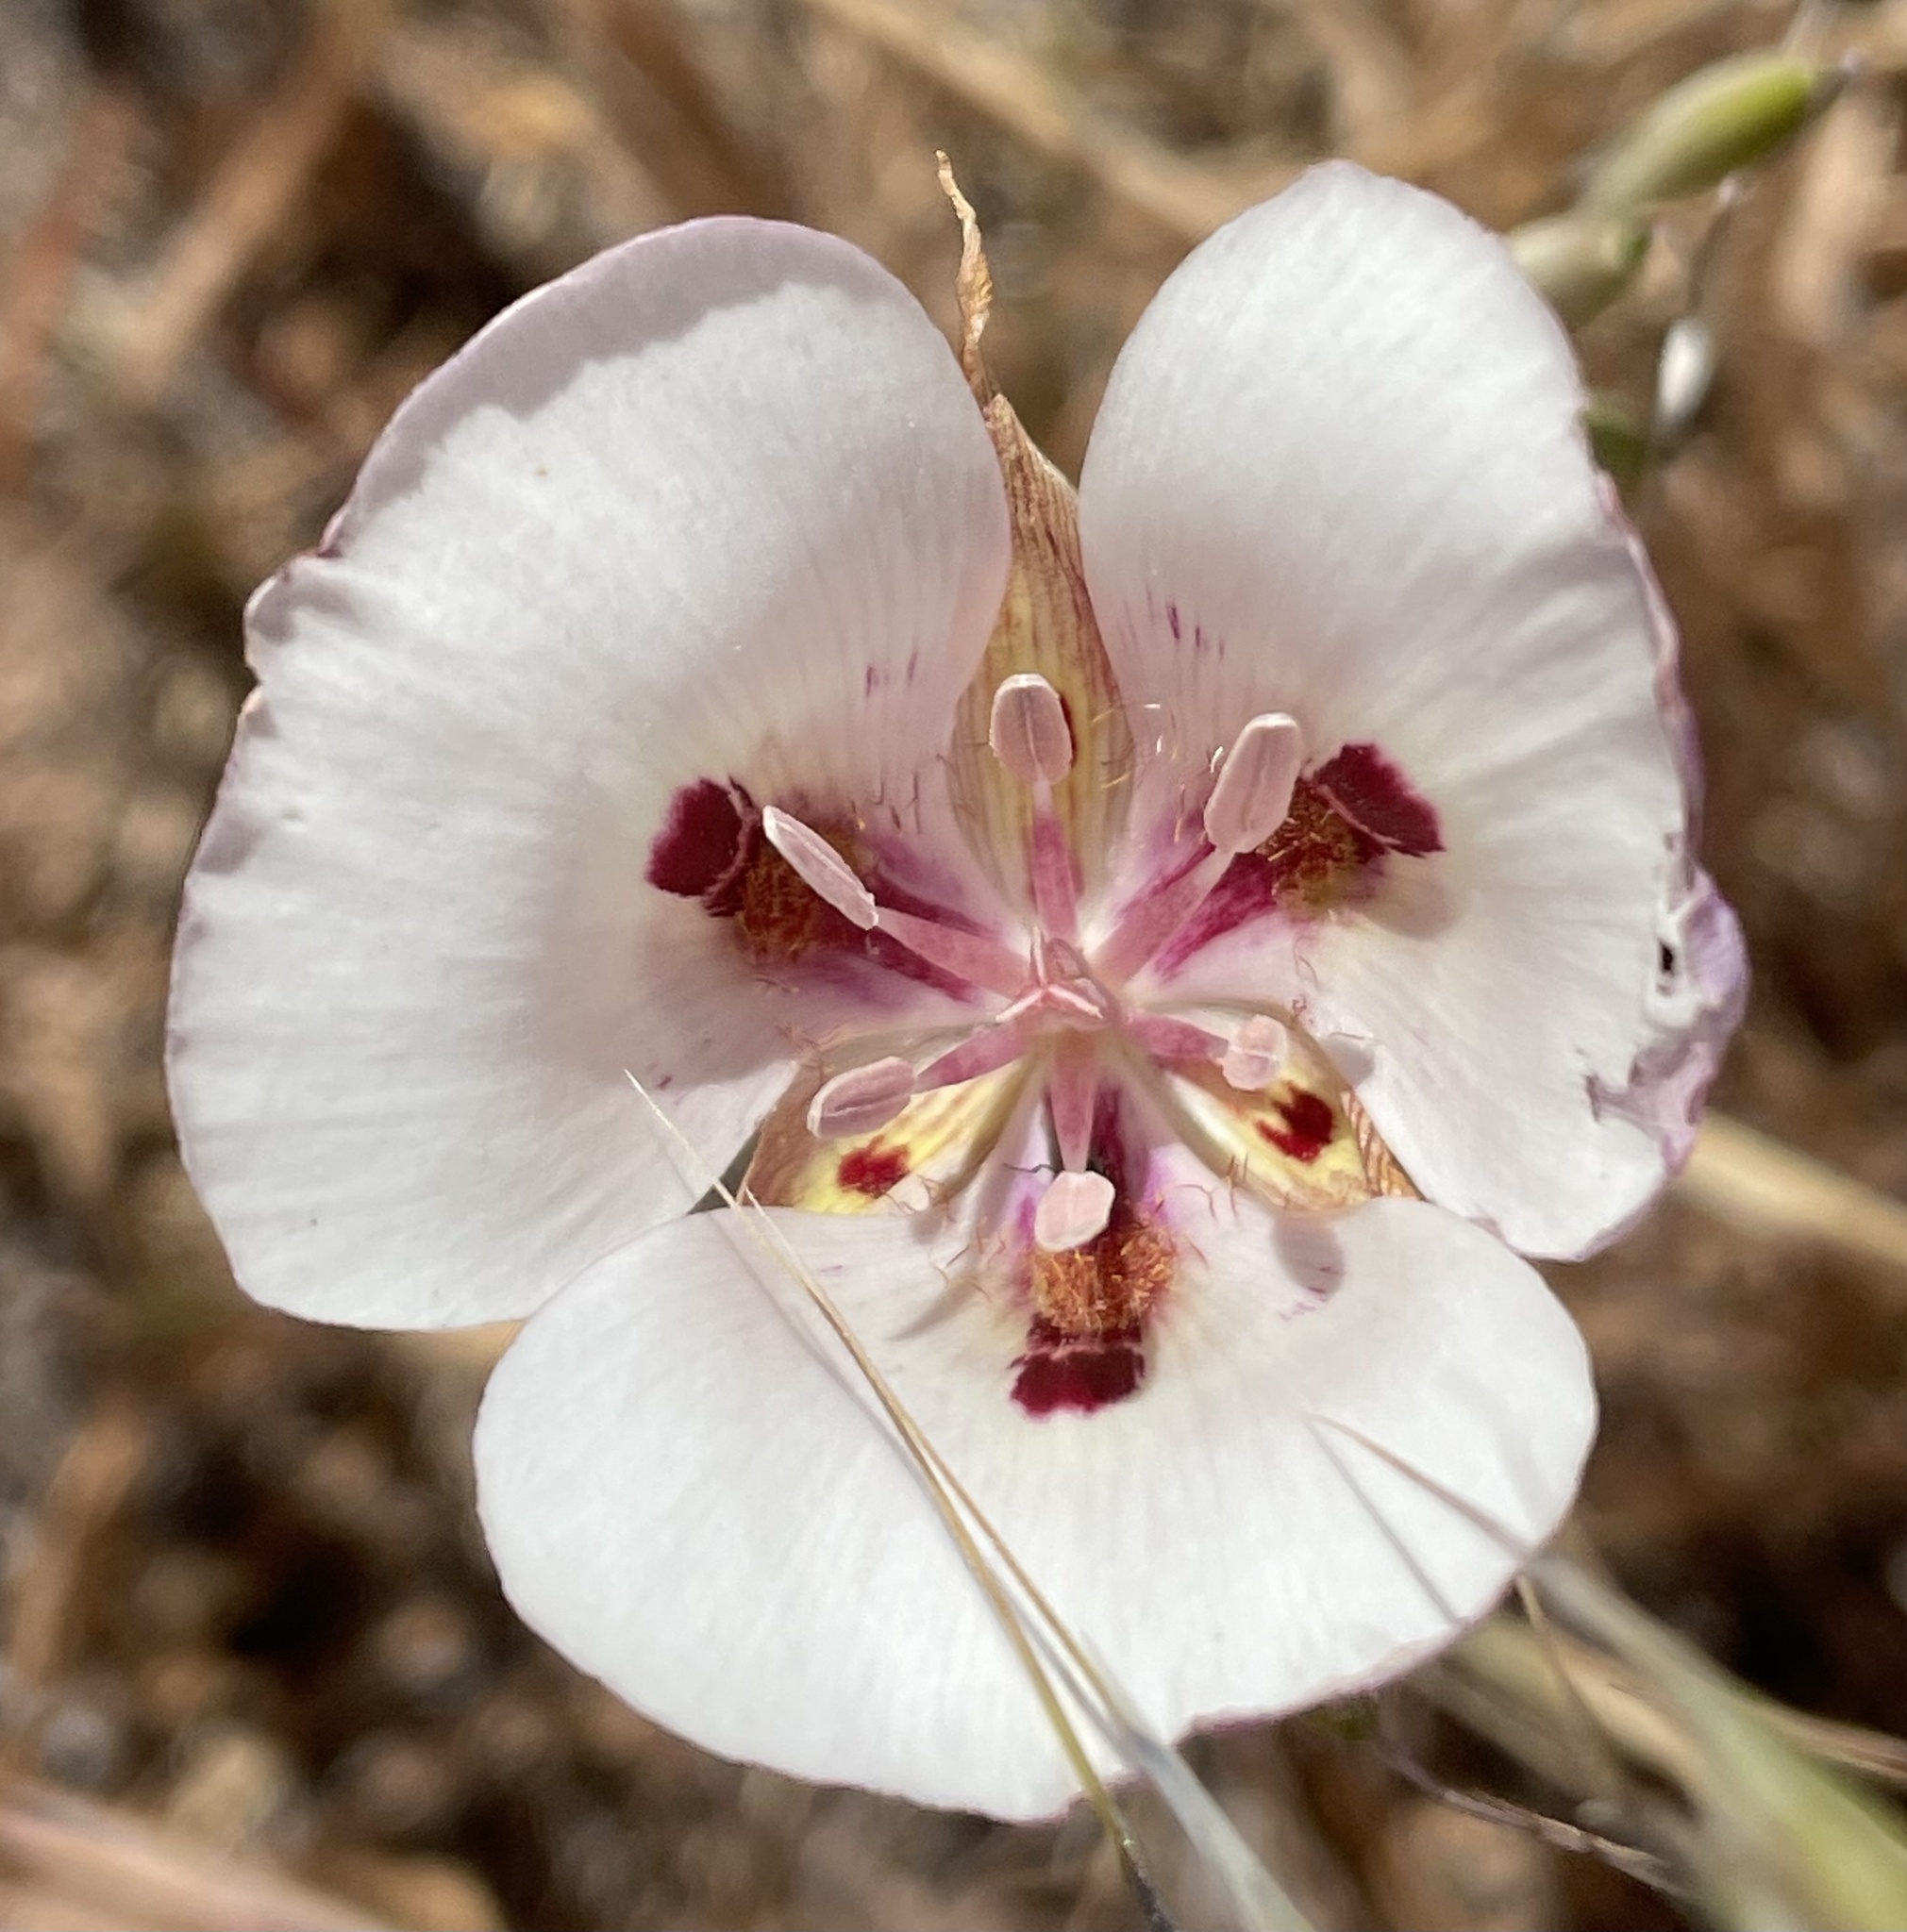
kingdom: Plantae
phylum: Tracheophyta
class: Liliopsida
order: Liliales
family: Liliaceae
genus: Calochortus
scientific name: Calochortus argillosus
